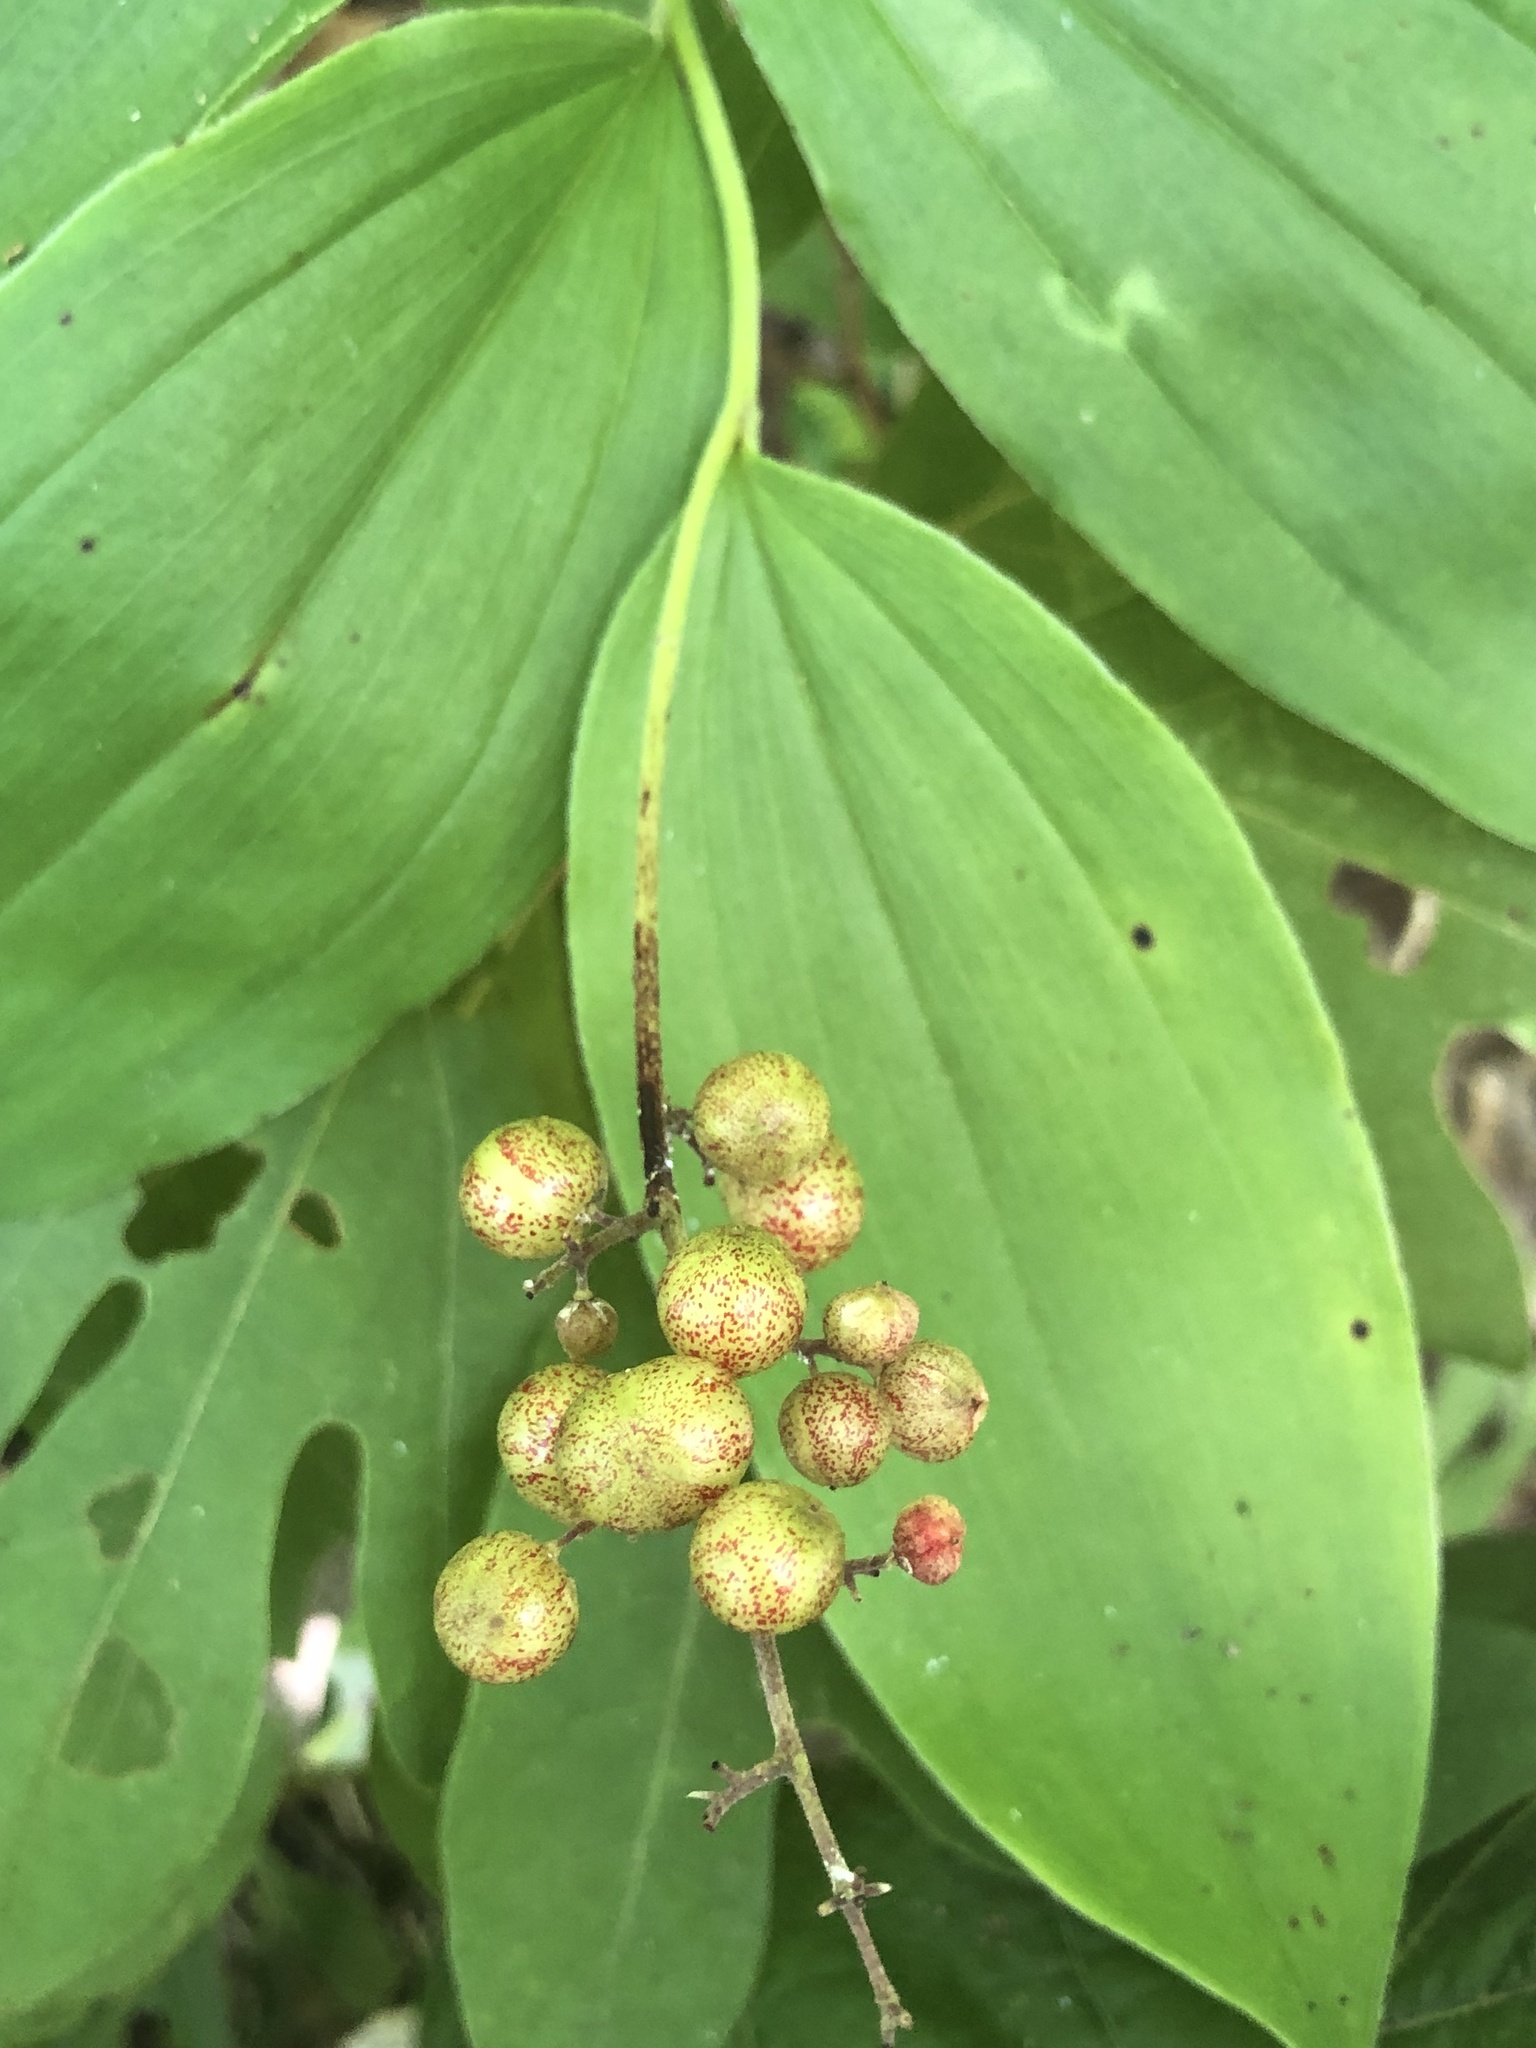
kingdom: Plantae
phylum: Tracheophyta
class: Liliopsida
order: Asparagales
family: Asparagaceae
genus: Maianthemum
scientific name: Maianthemum racemosum
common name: False spikenard
